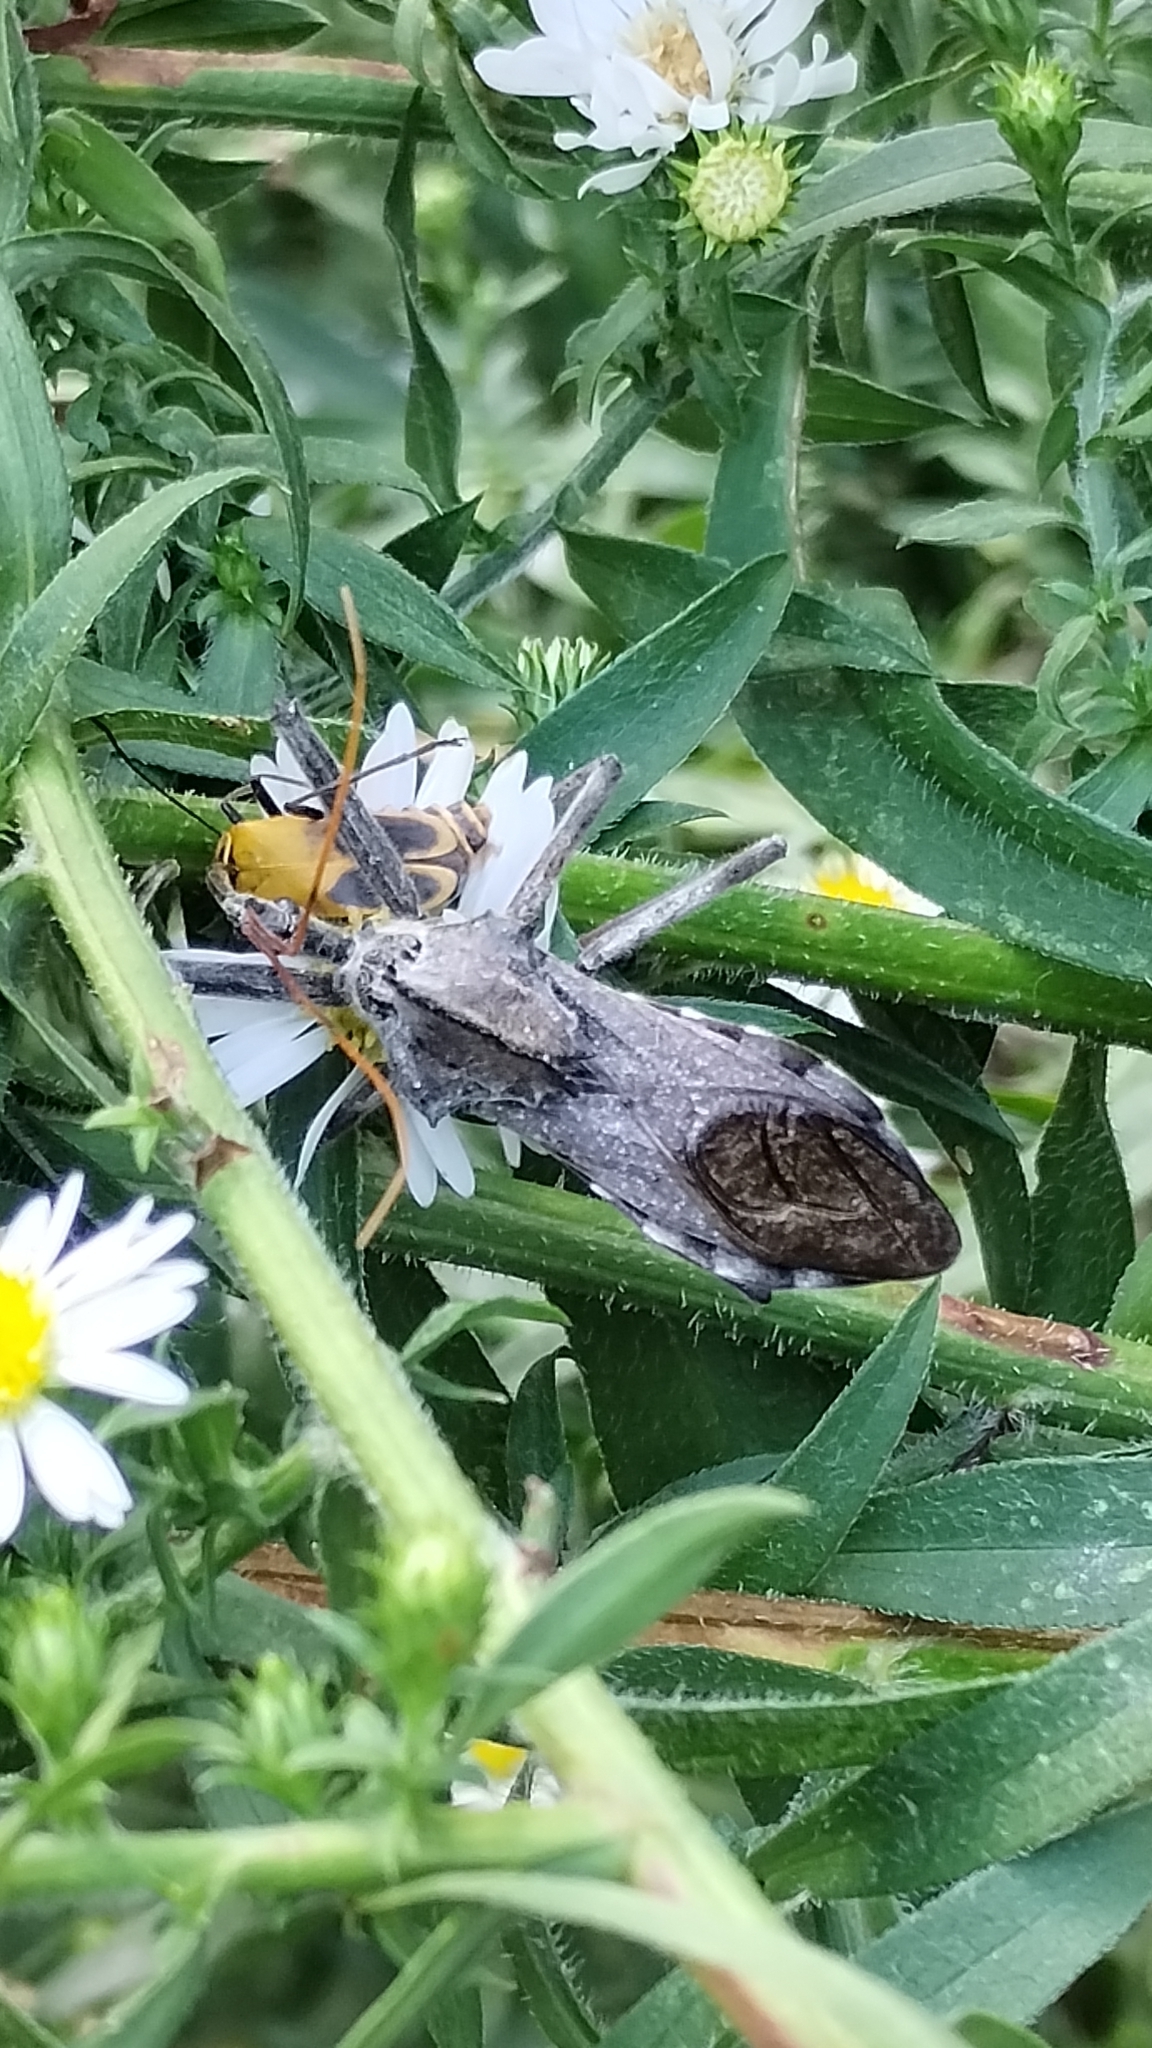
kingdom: Animalia
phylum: Arthropoda
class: Insecta
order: Hemiptera
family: Reduviidae
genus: Arilus
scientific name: Arilus cristatus
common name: North american wheel bug
